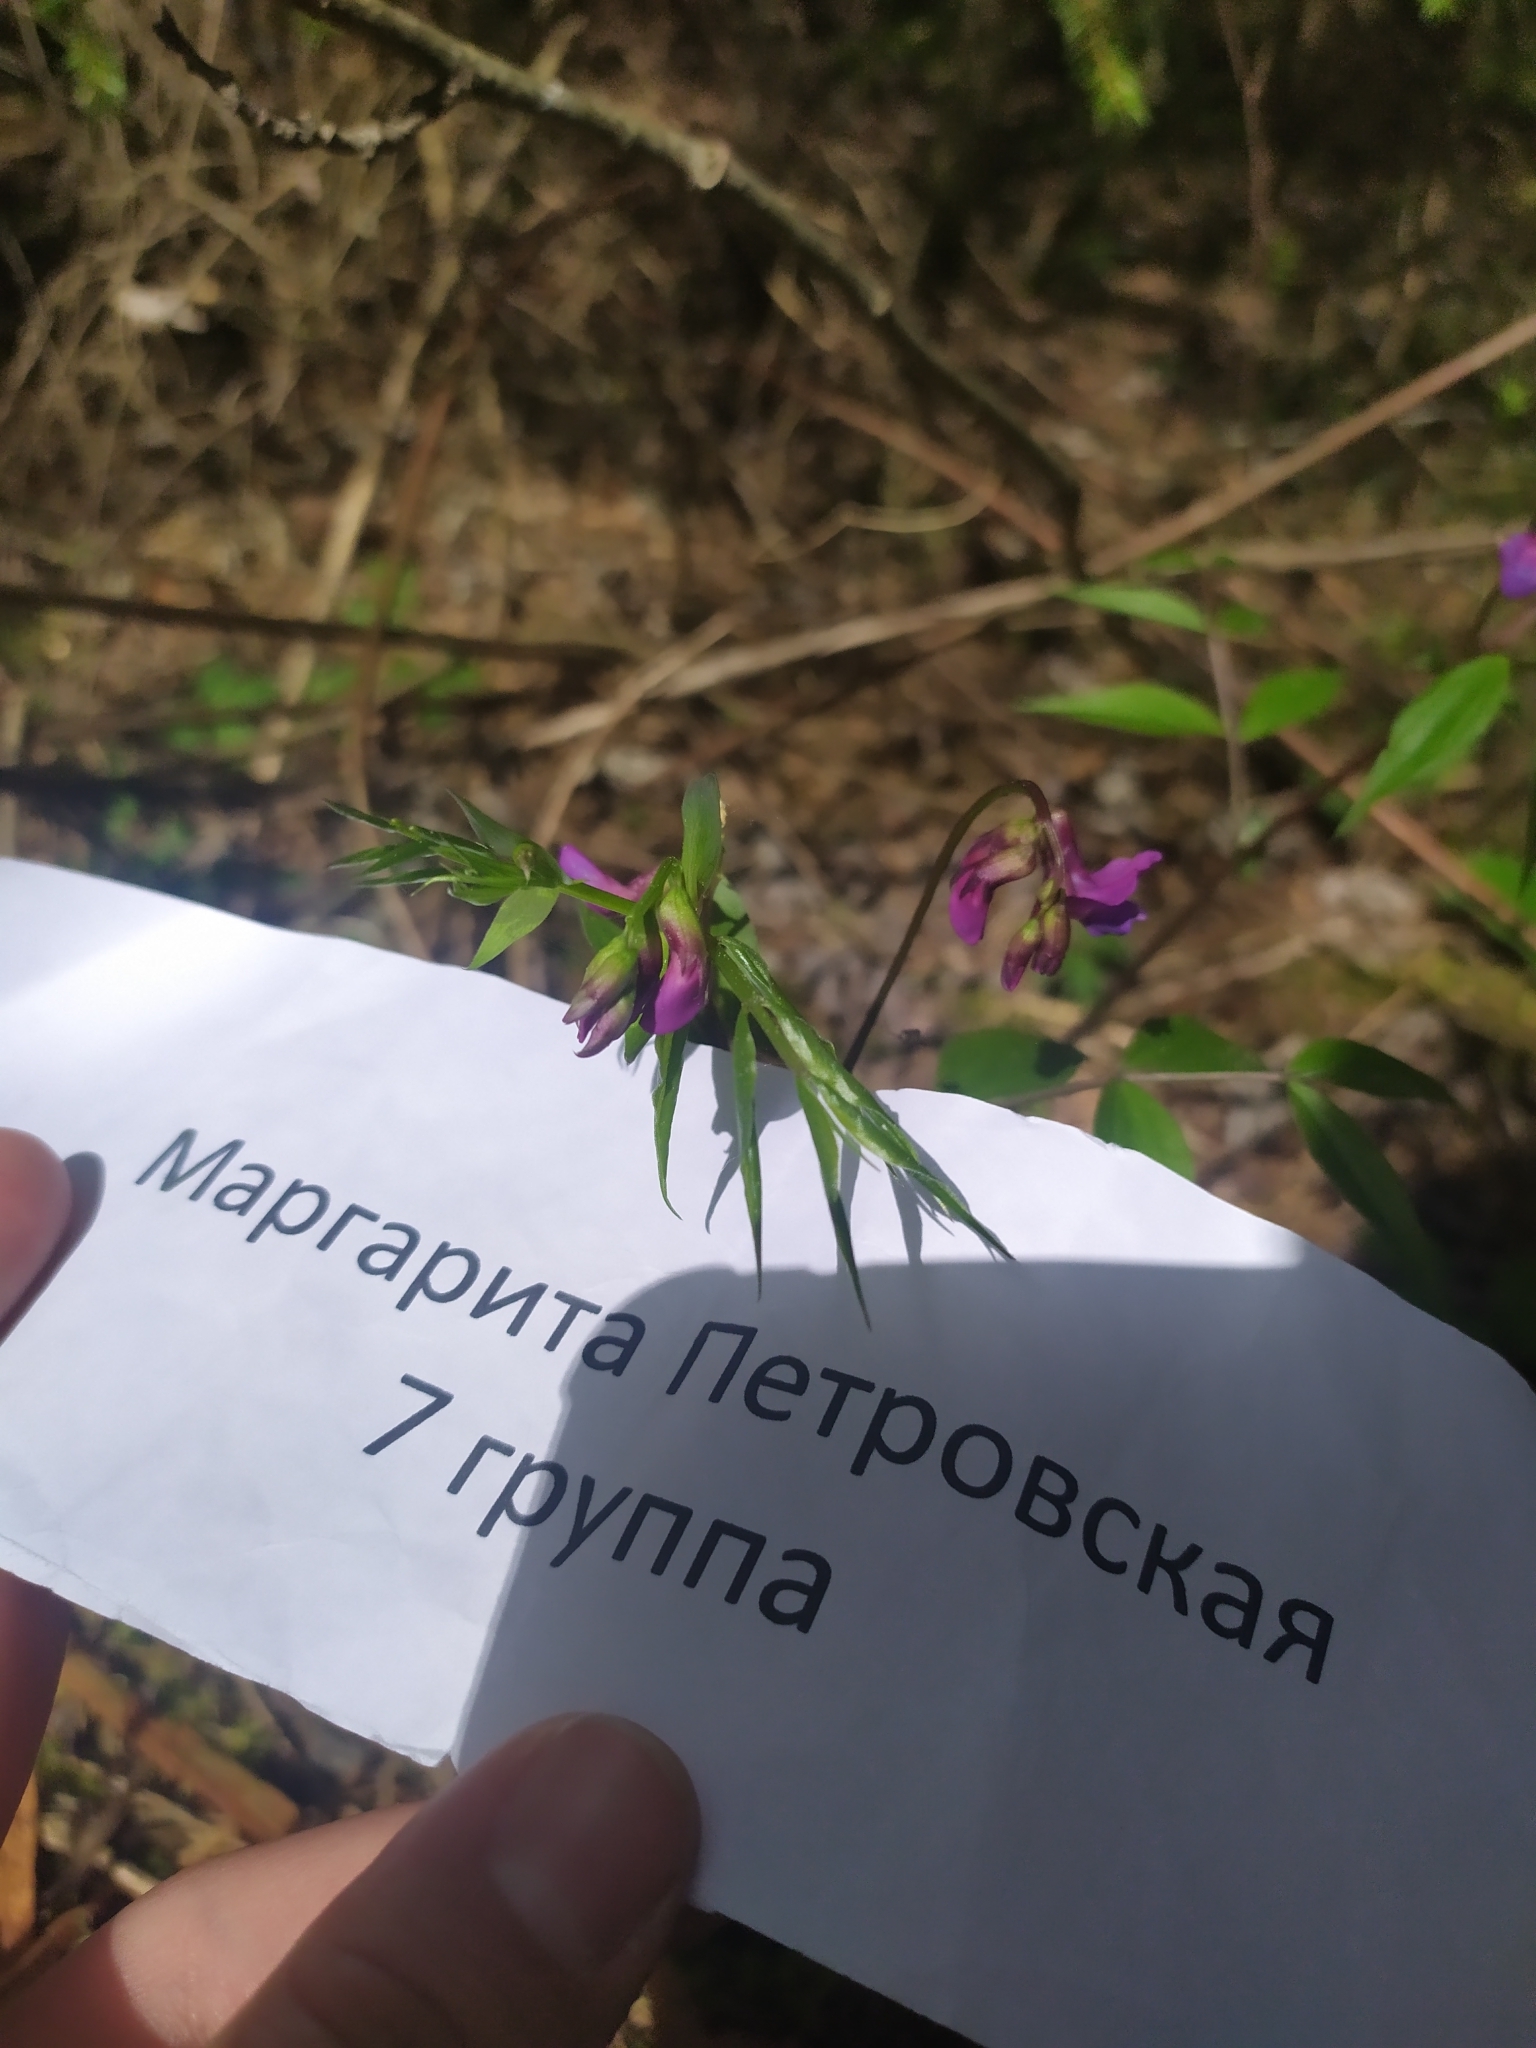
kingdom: Plantae
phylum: Tracheophyta
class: Magnoliopsida
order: Fabales
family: Fabaceae
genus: Lathyrus
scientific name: Lathyrus vernus
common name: Spring pea
